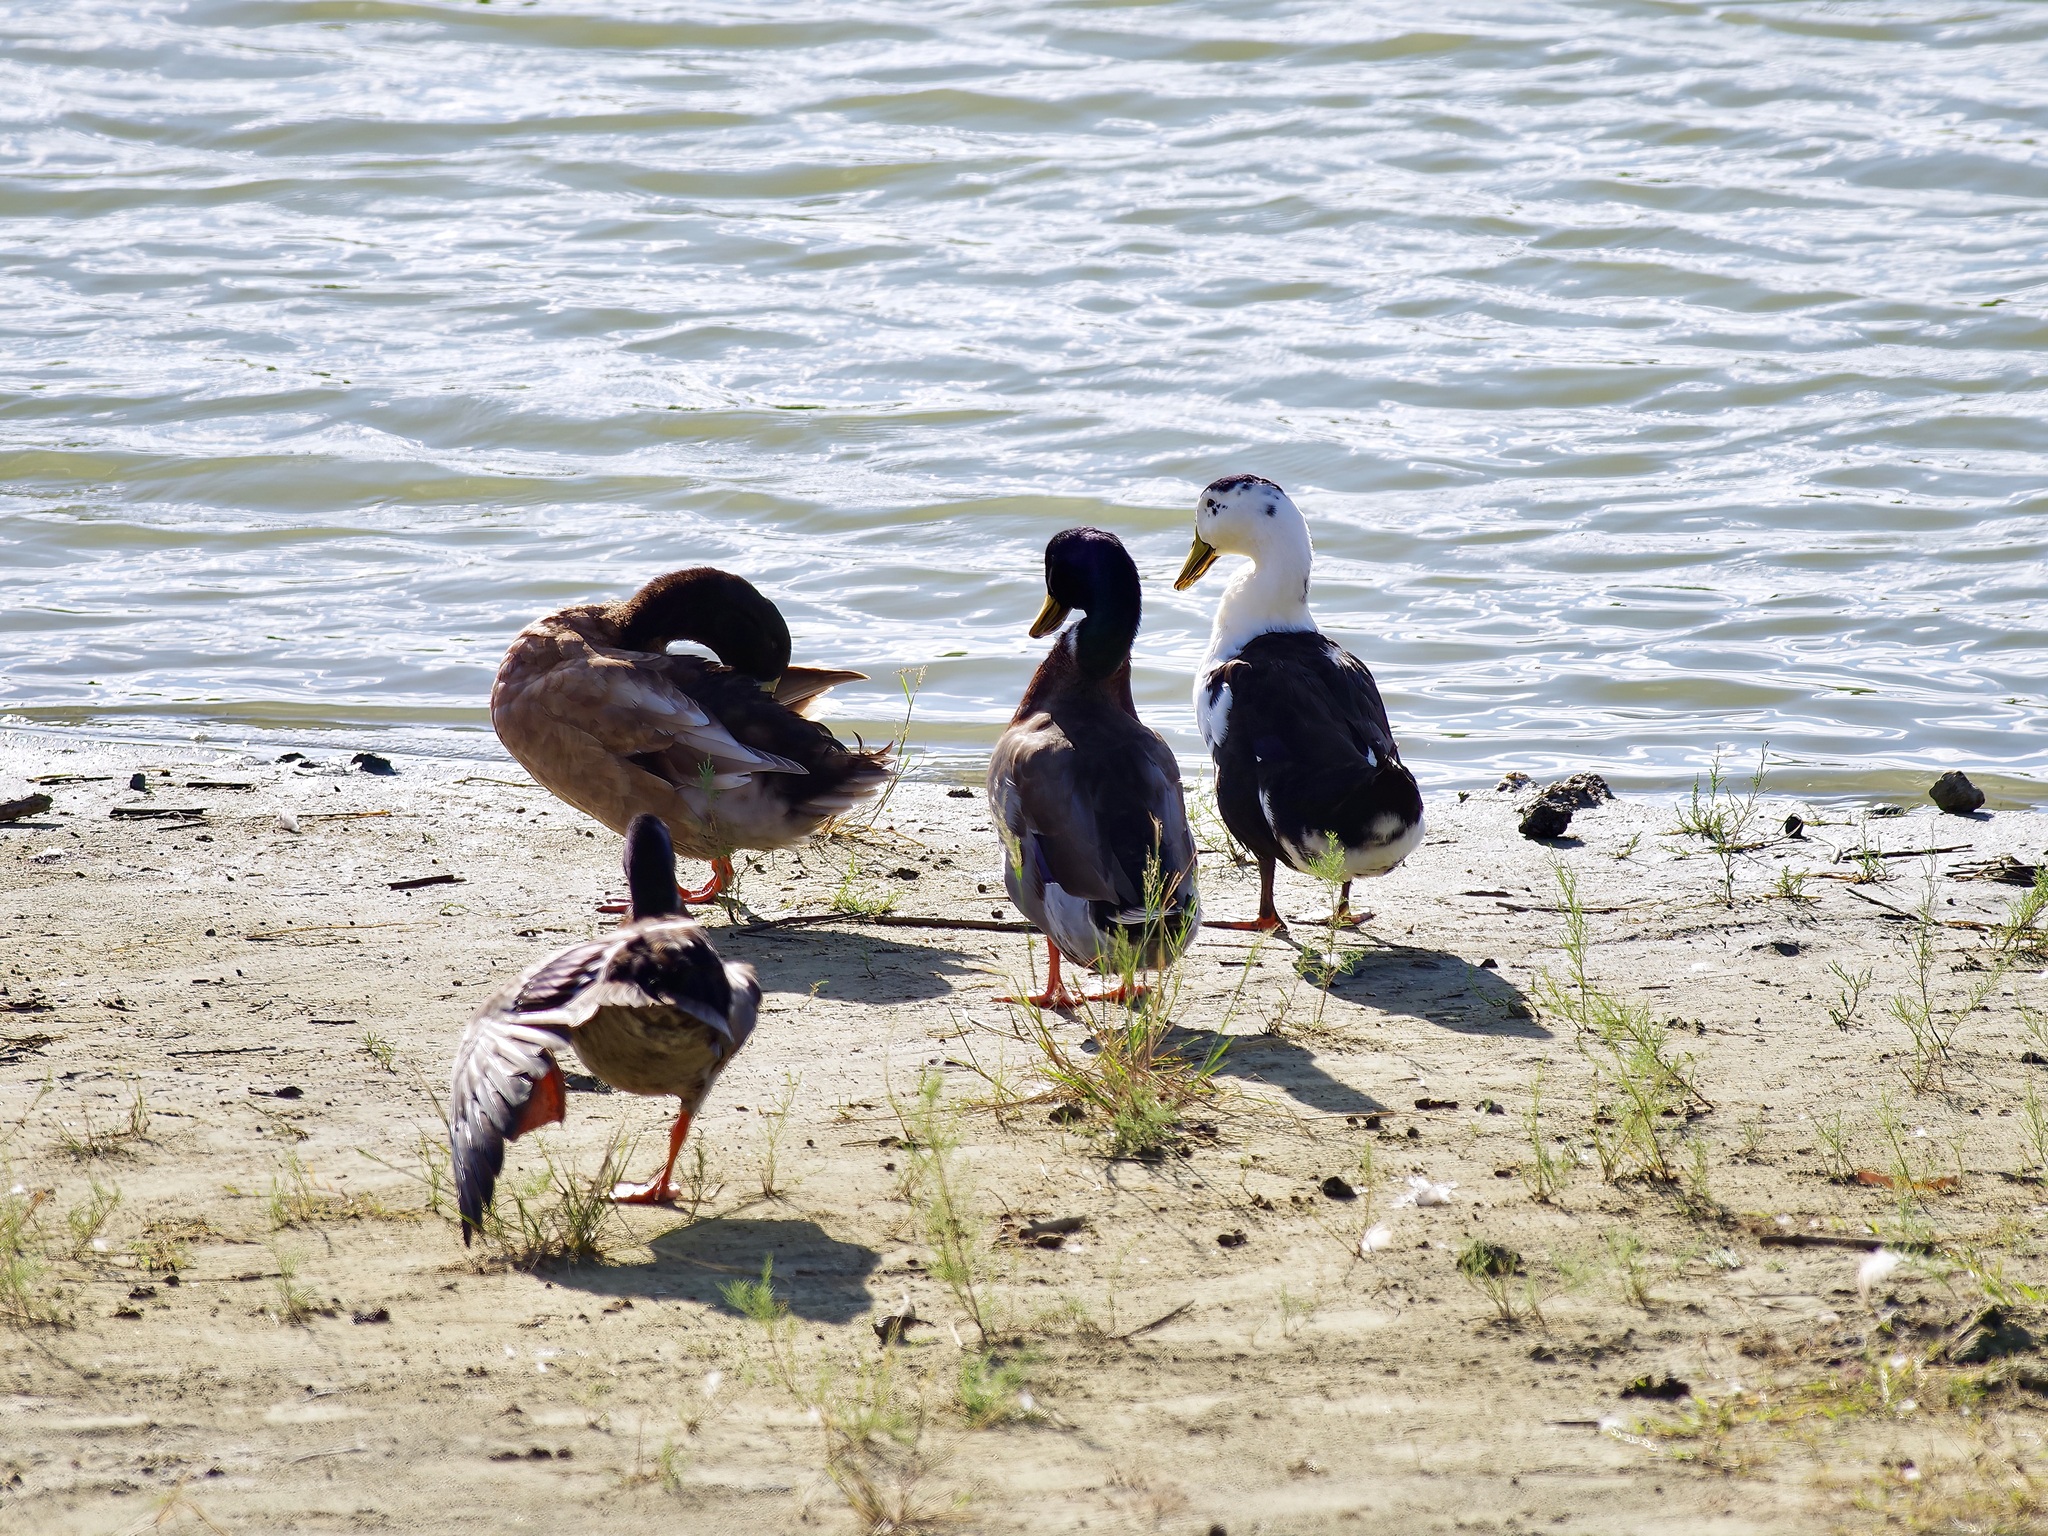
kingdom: Animalia
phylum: Chordata
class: Aves
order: Anseriformes
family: Anatidae
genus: Anas
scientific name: Anas platyrhynchos
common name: Mallard
